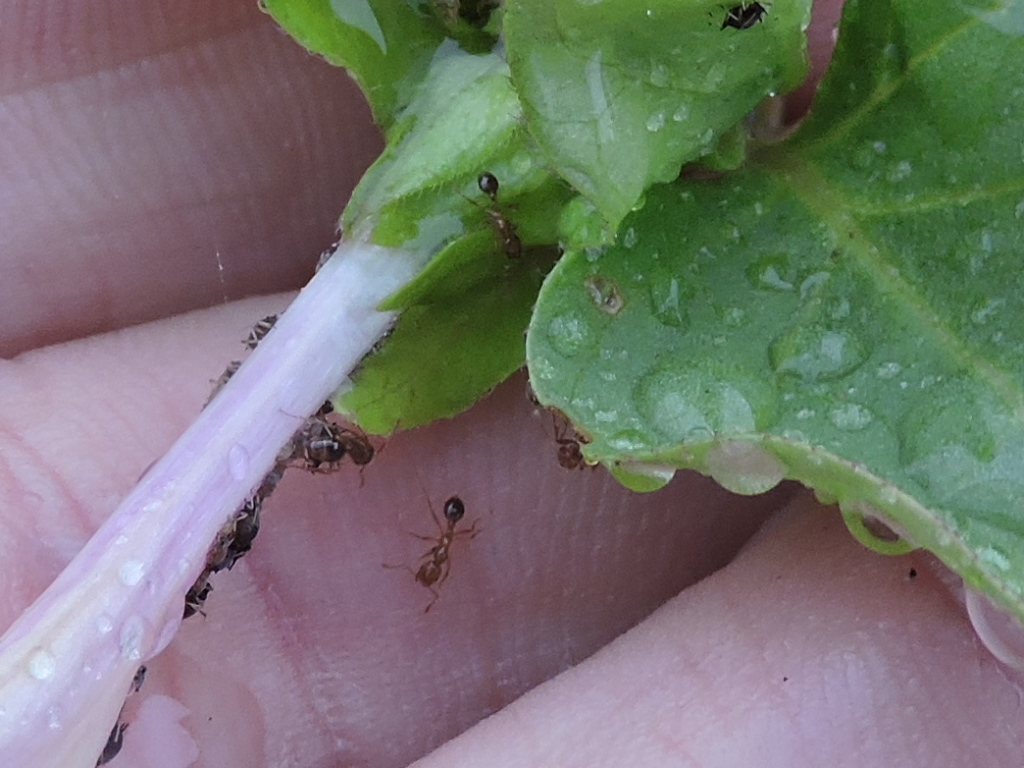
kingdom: Animalia
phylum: Arthropoda
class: Insecta
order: Hymenoptera
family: Formicidae
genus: Solenopsis
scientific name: Solenopsis invicta
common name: Red imported fire ant
